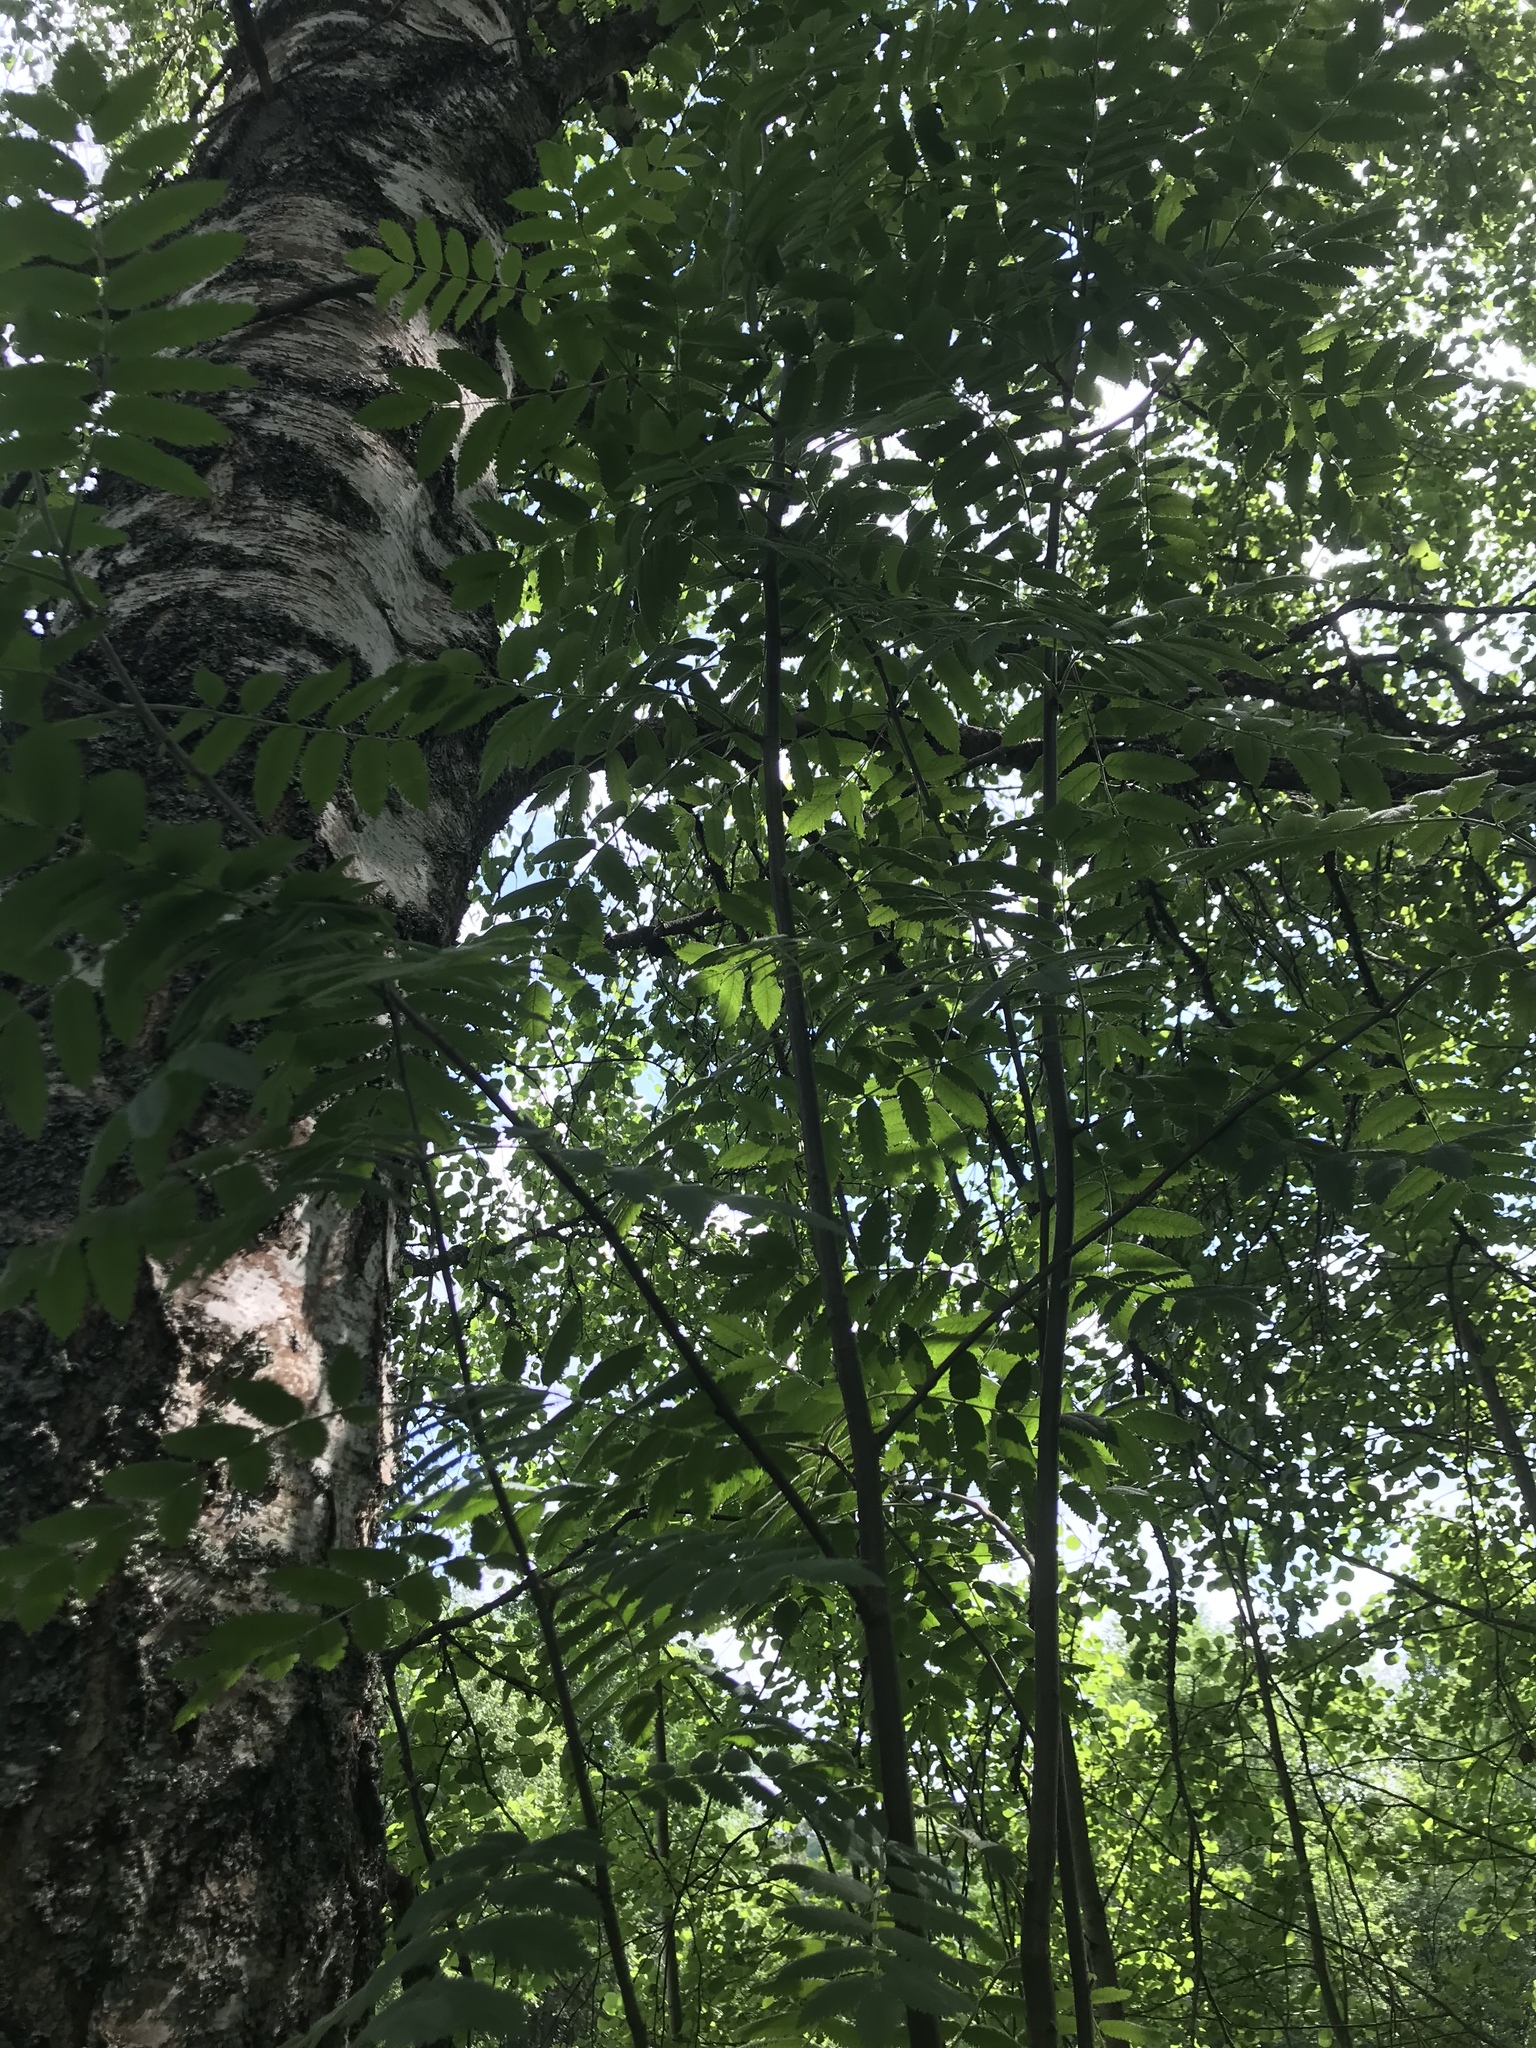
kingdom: Plantae
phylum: Tracheophyta
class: Magnoliopsida
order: Rosales
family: Rosaceae
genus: Sorbus
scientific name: Sorbus aucuparia
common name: Rowan
